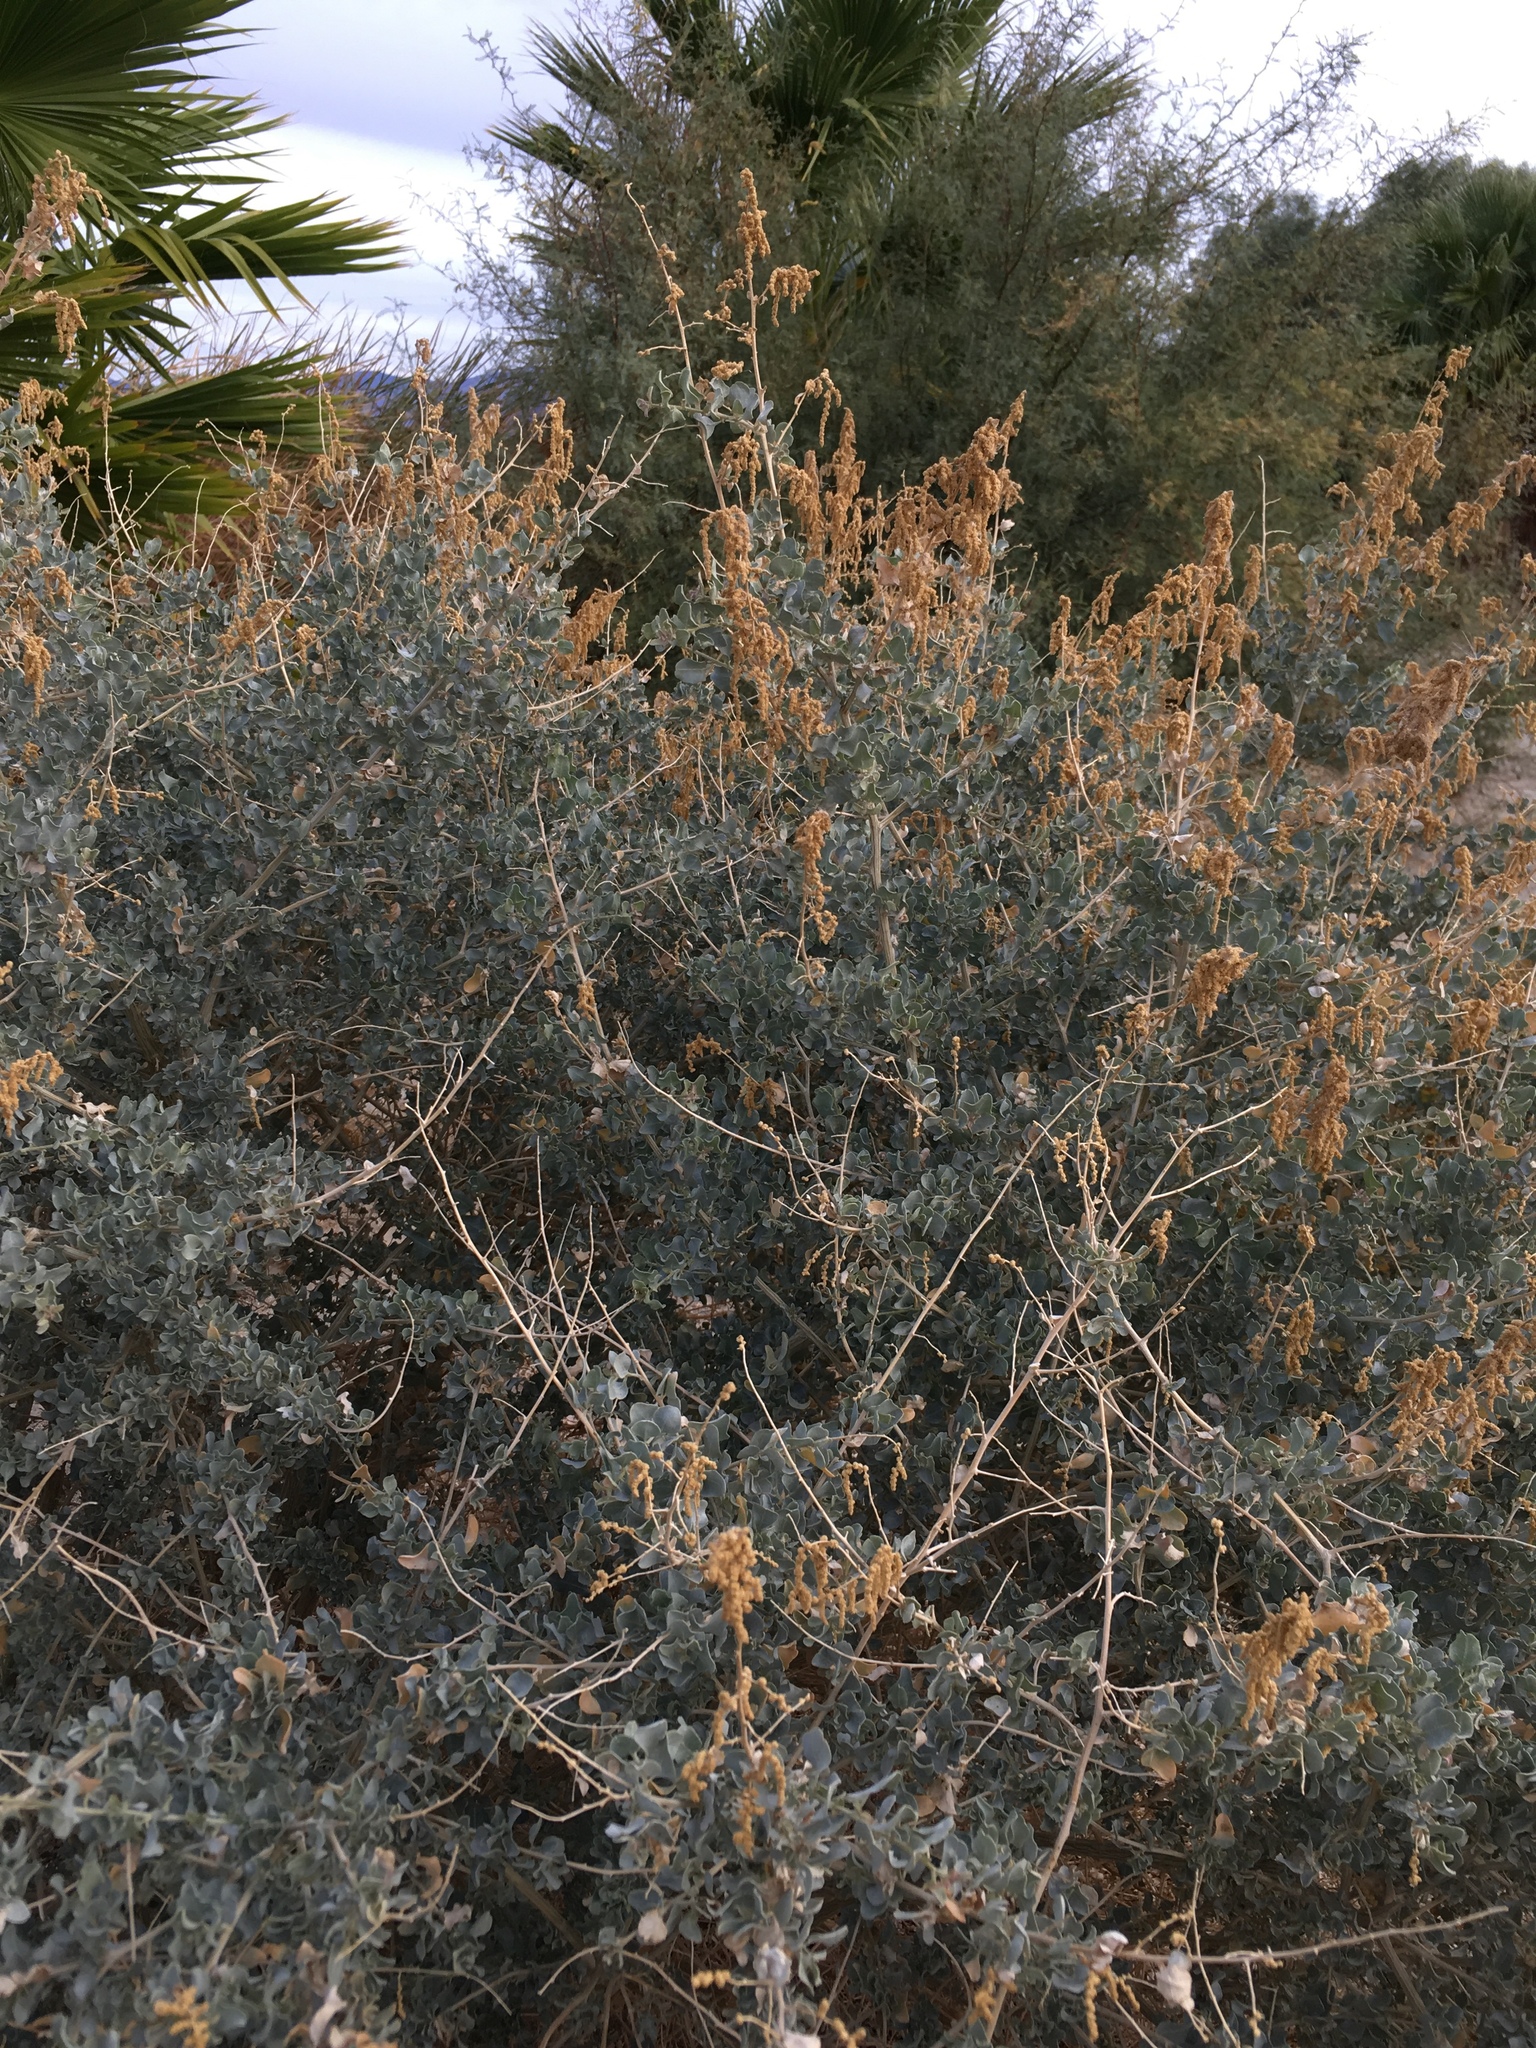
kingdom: Plantae
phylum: Tracheophyta
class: Magnoliopsida
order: Caryophyllales
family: Amaranthaceae
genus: Atriplex
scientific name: Atriplex lentiformis
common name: Big saltbush
